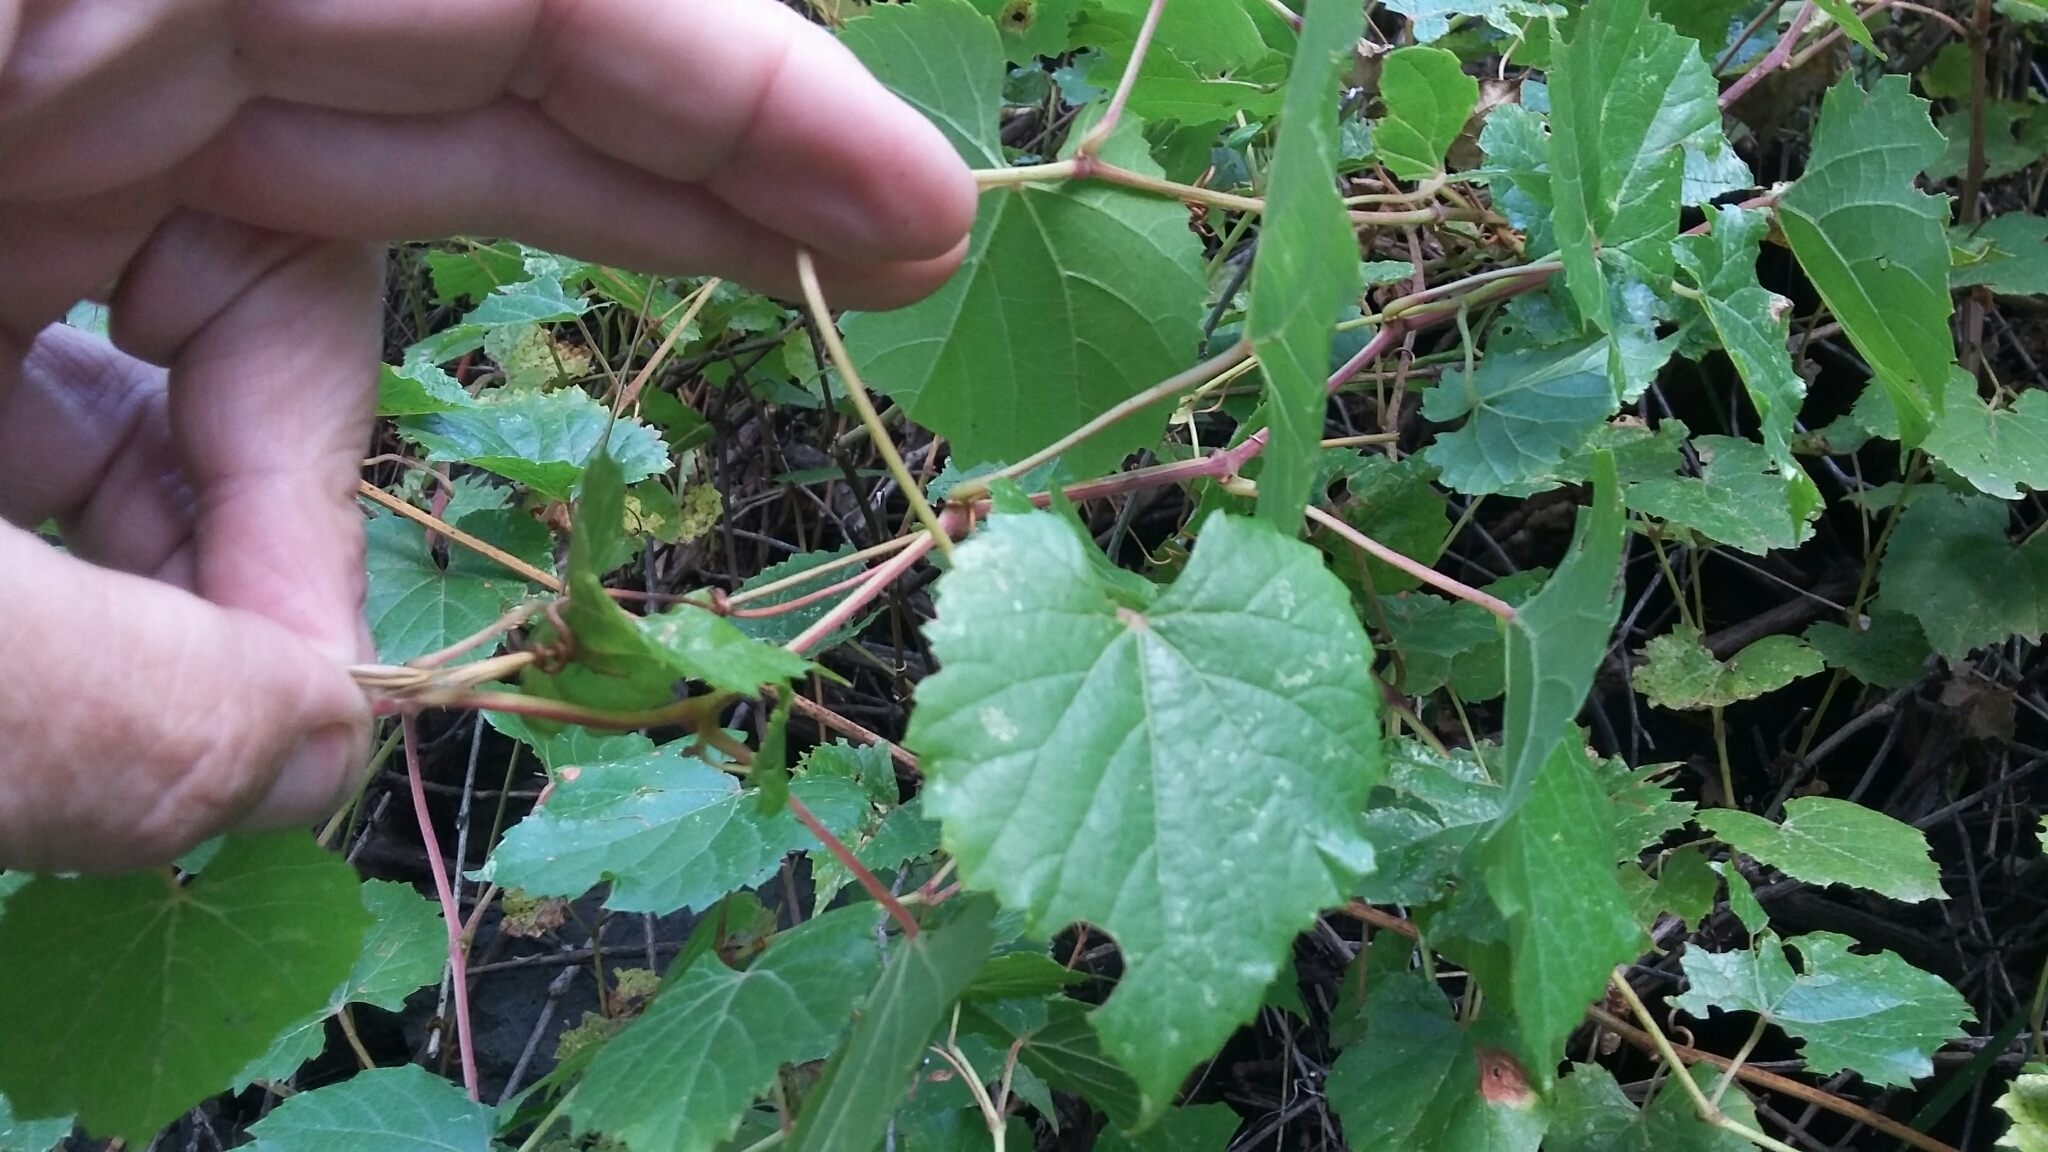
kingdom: Plantae
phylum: Tracheophyta
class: Magnoliopsida
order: Vitales
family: Vitaceae
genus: Vitis
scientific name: Vitis arizonica
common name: Canyon grape
